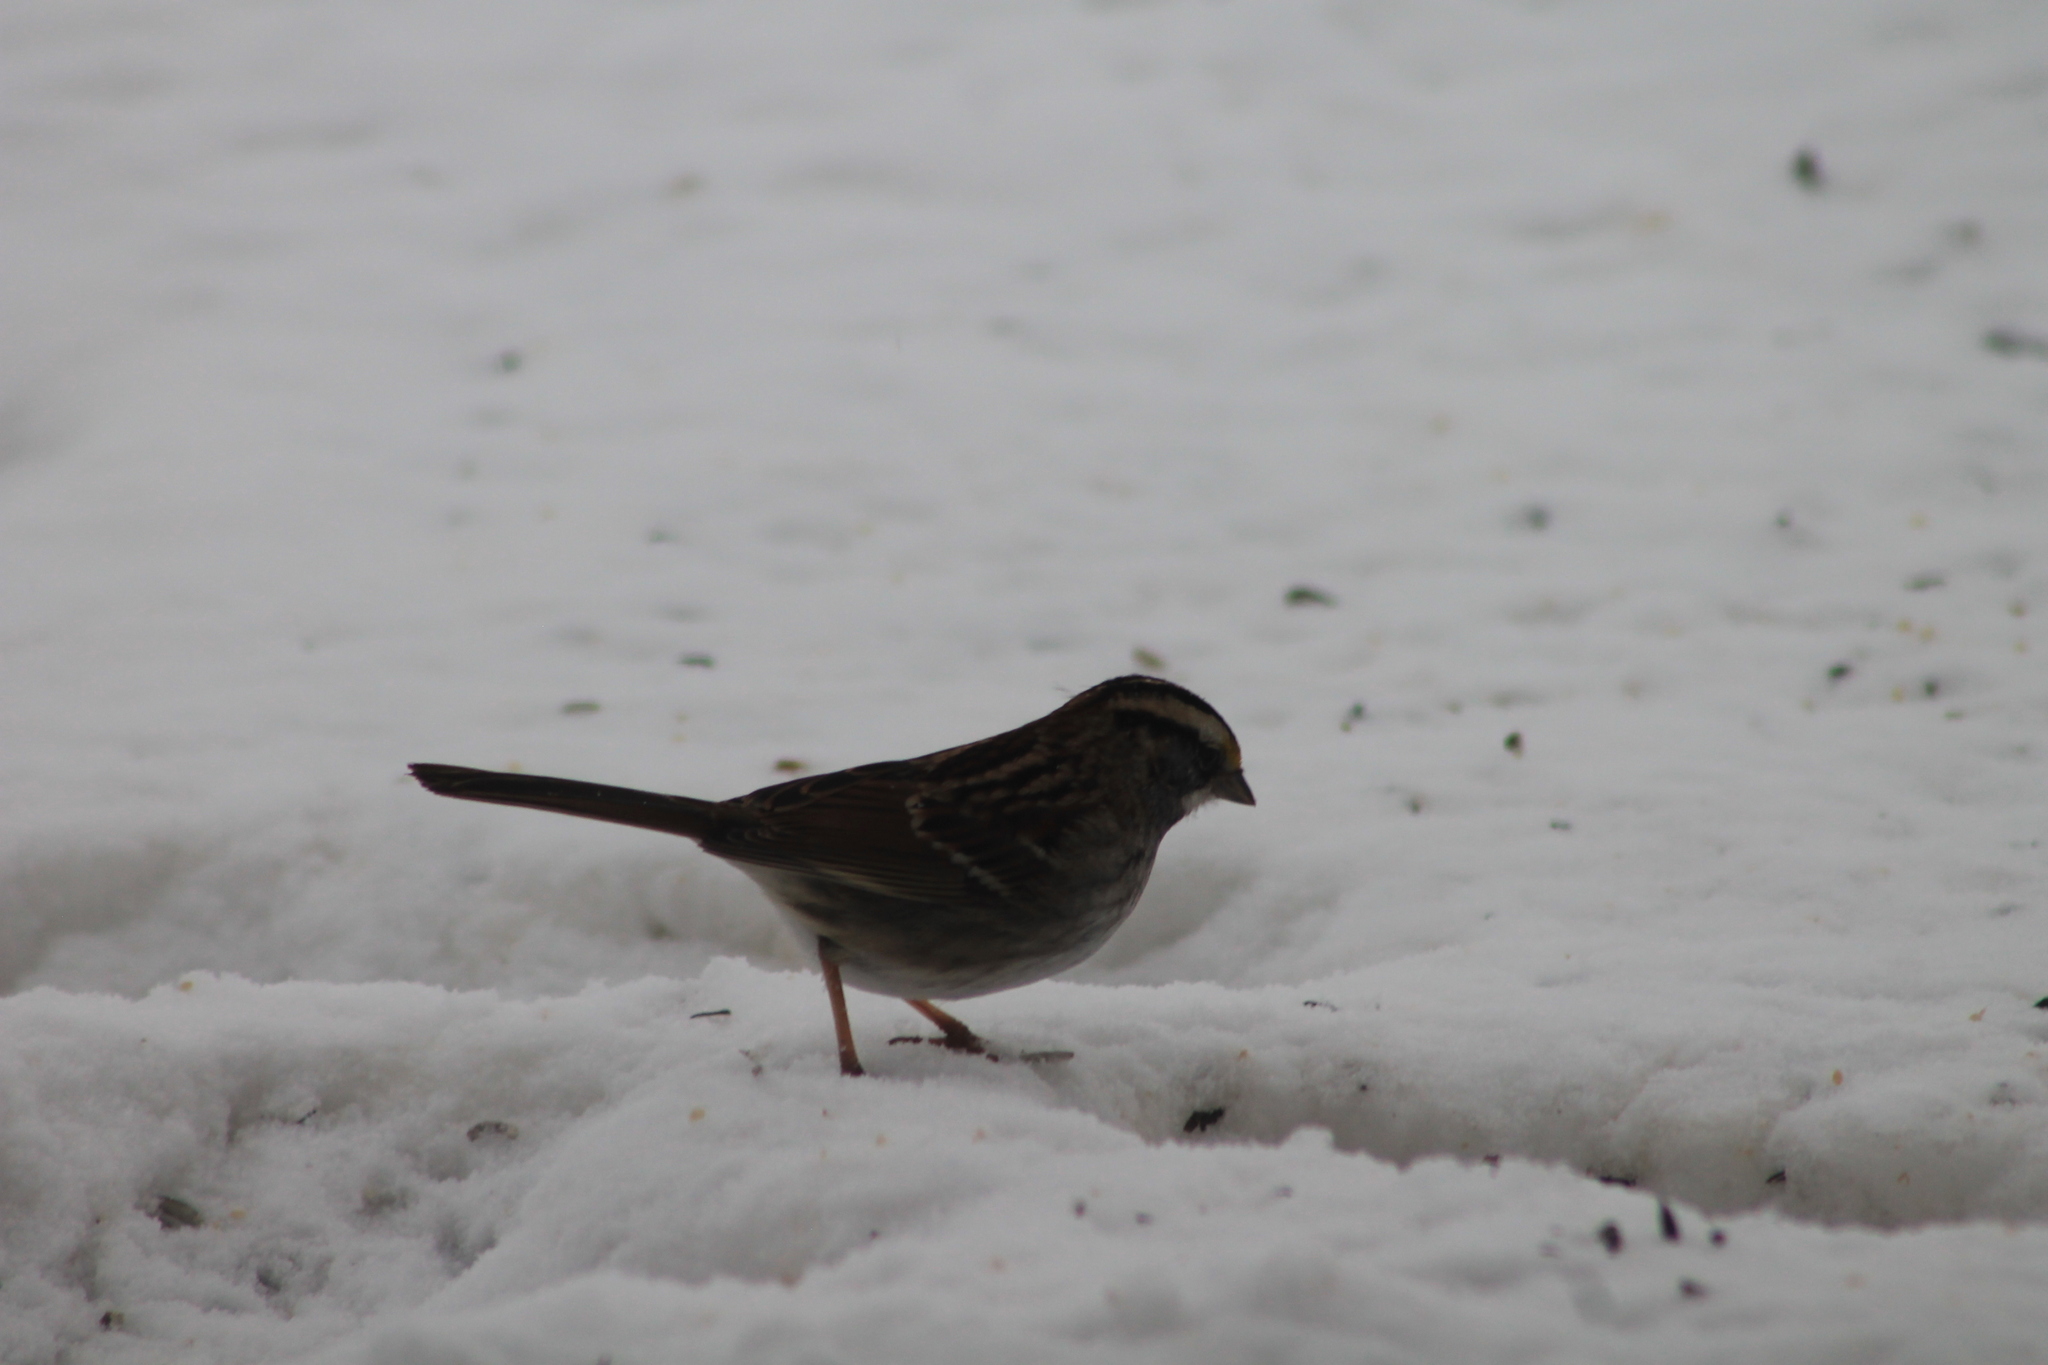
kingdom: Animalia
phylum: Chordata
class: Aves
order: Passeriformes
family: Passerellidae
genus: Zonotrichia
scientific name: Zonotrichia albicollis
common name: White-throated sparrow
